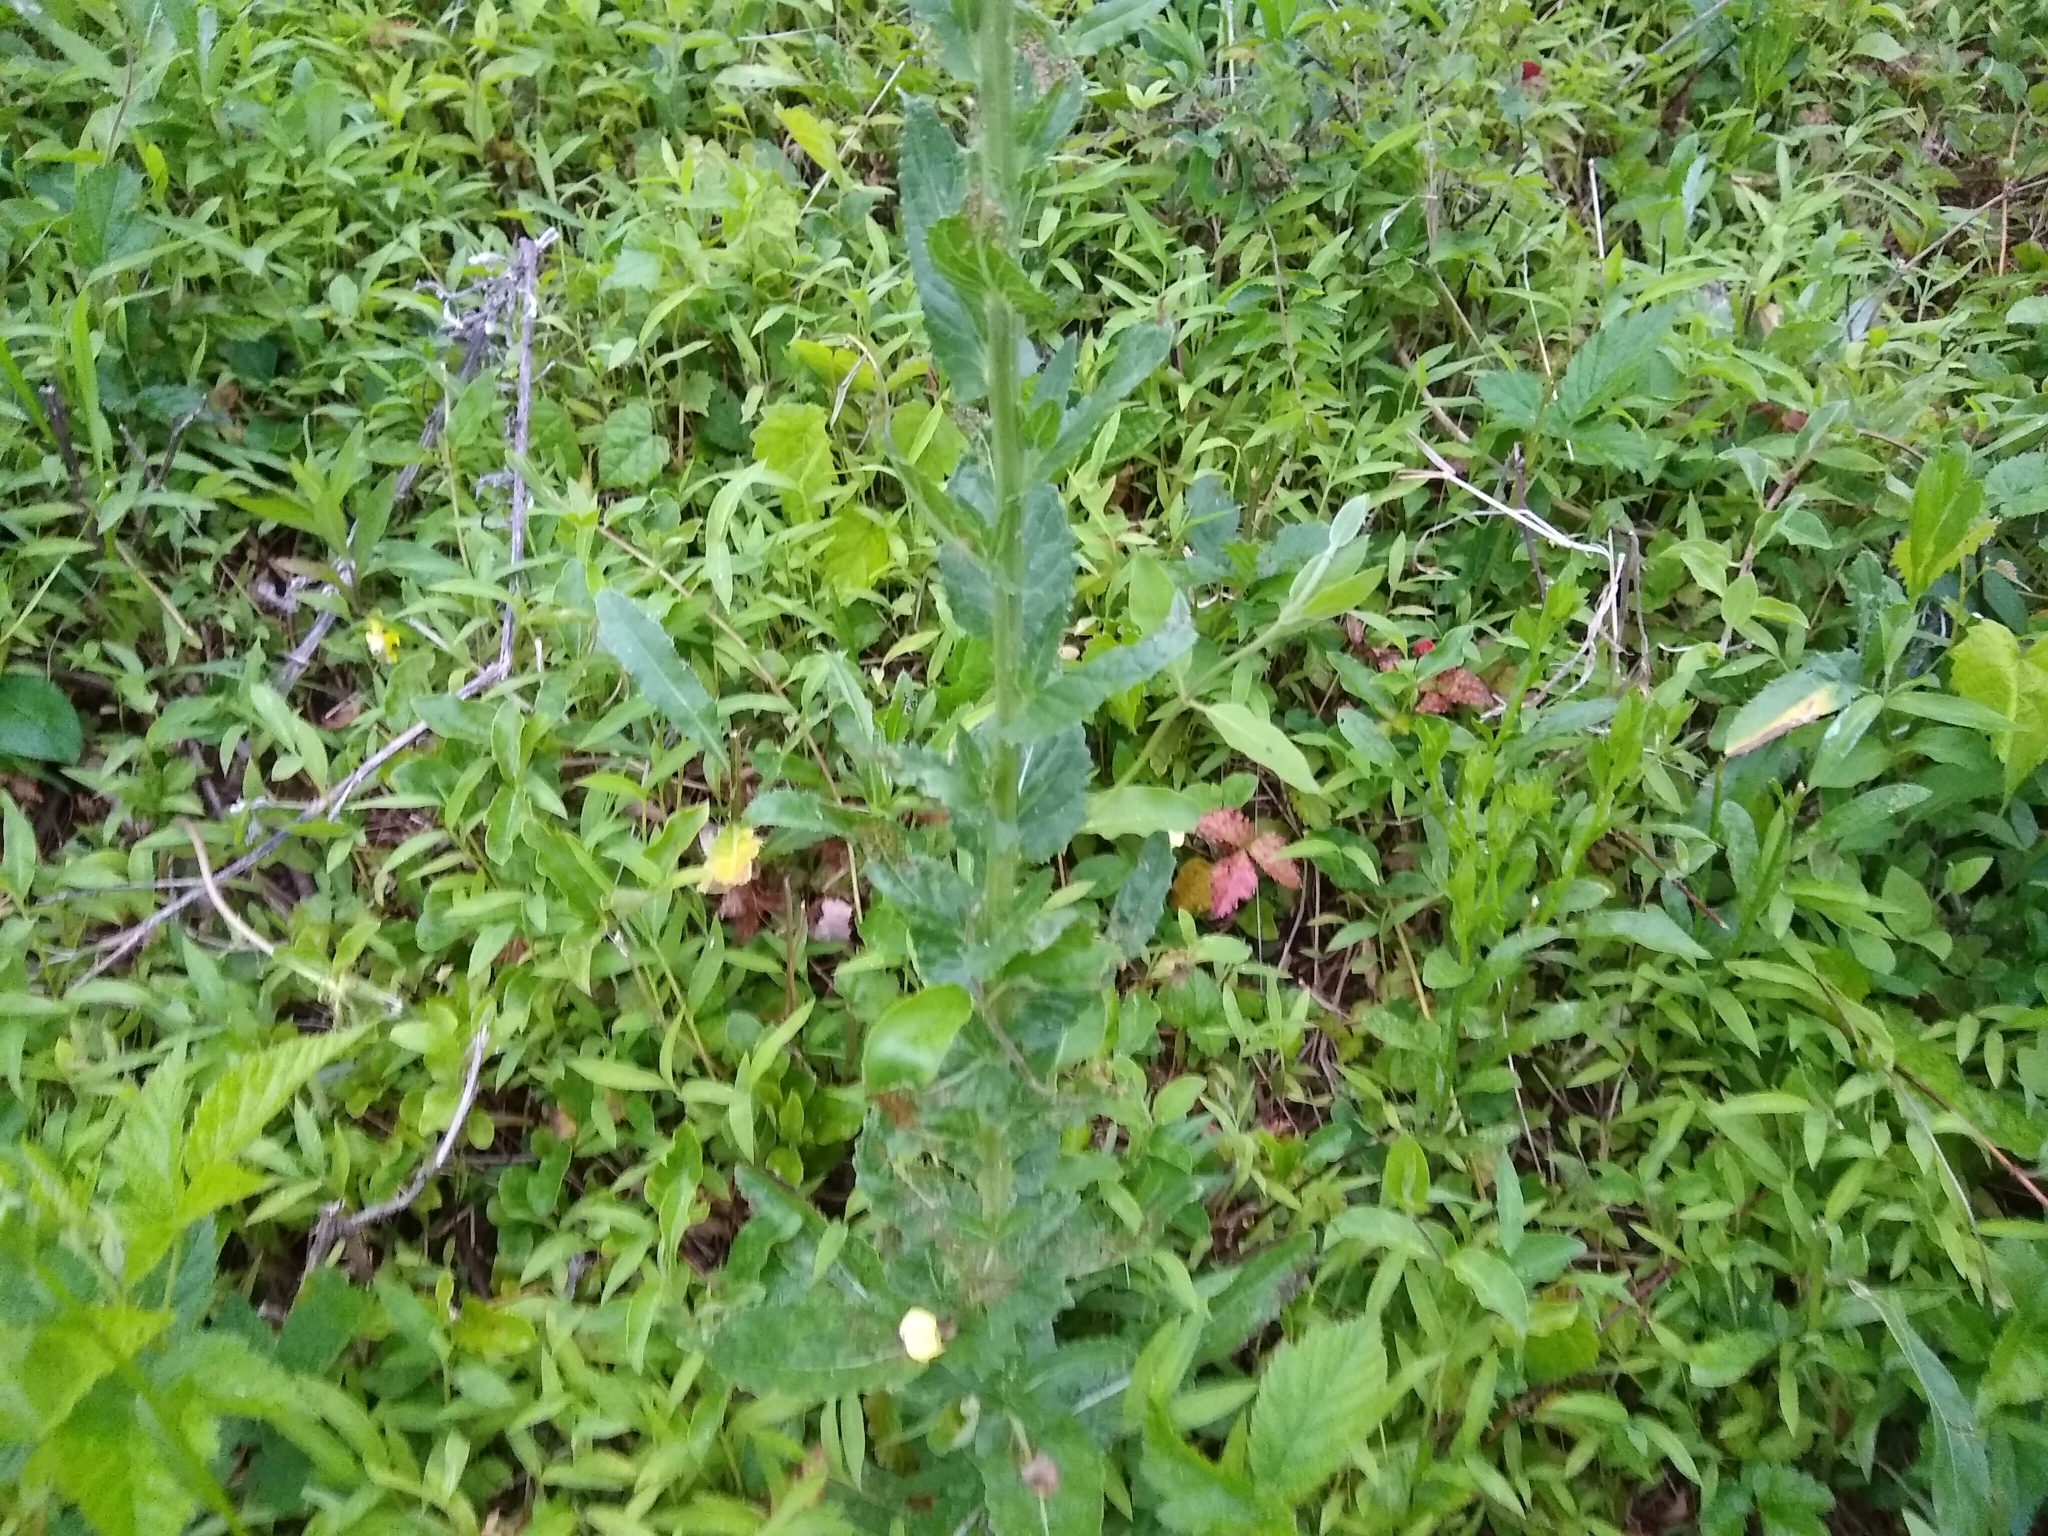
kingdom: Plantae
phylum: Tracheophyta
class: Magnoliopsida
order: Lamiales
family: Scrophulariaceae
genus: Verbascum
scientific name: Verbascum blattaria
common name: Moth mullein
